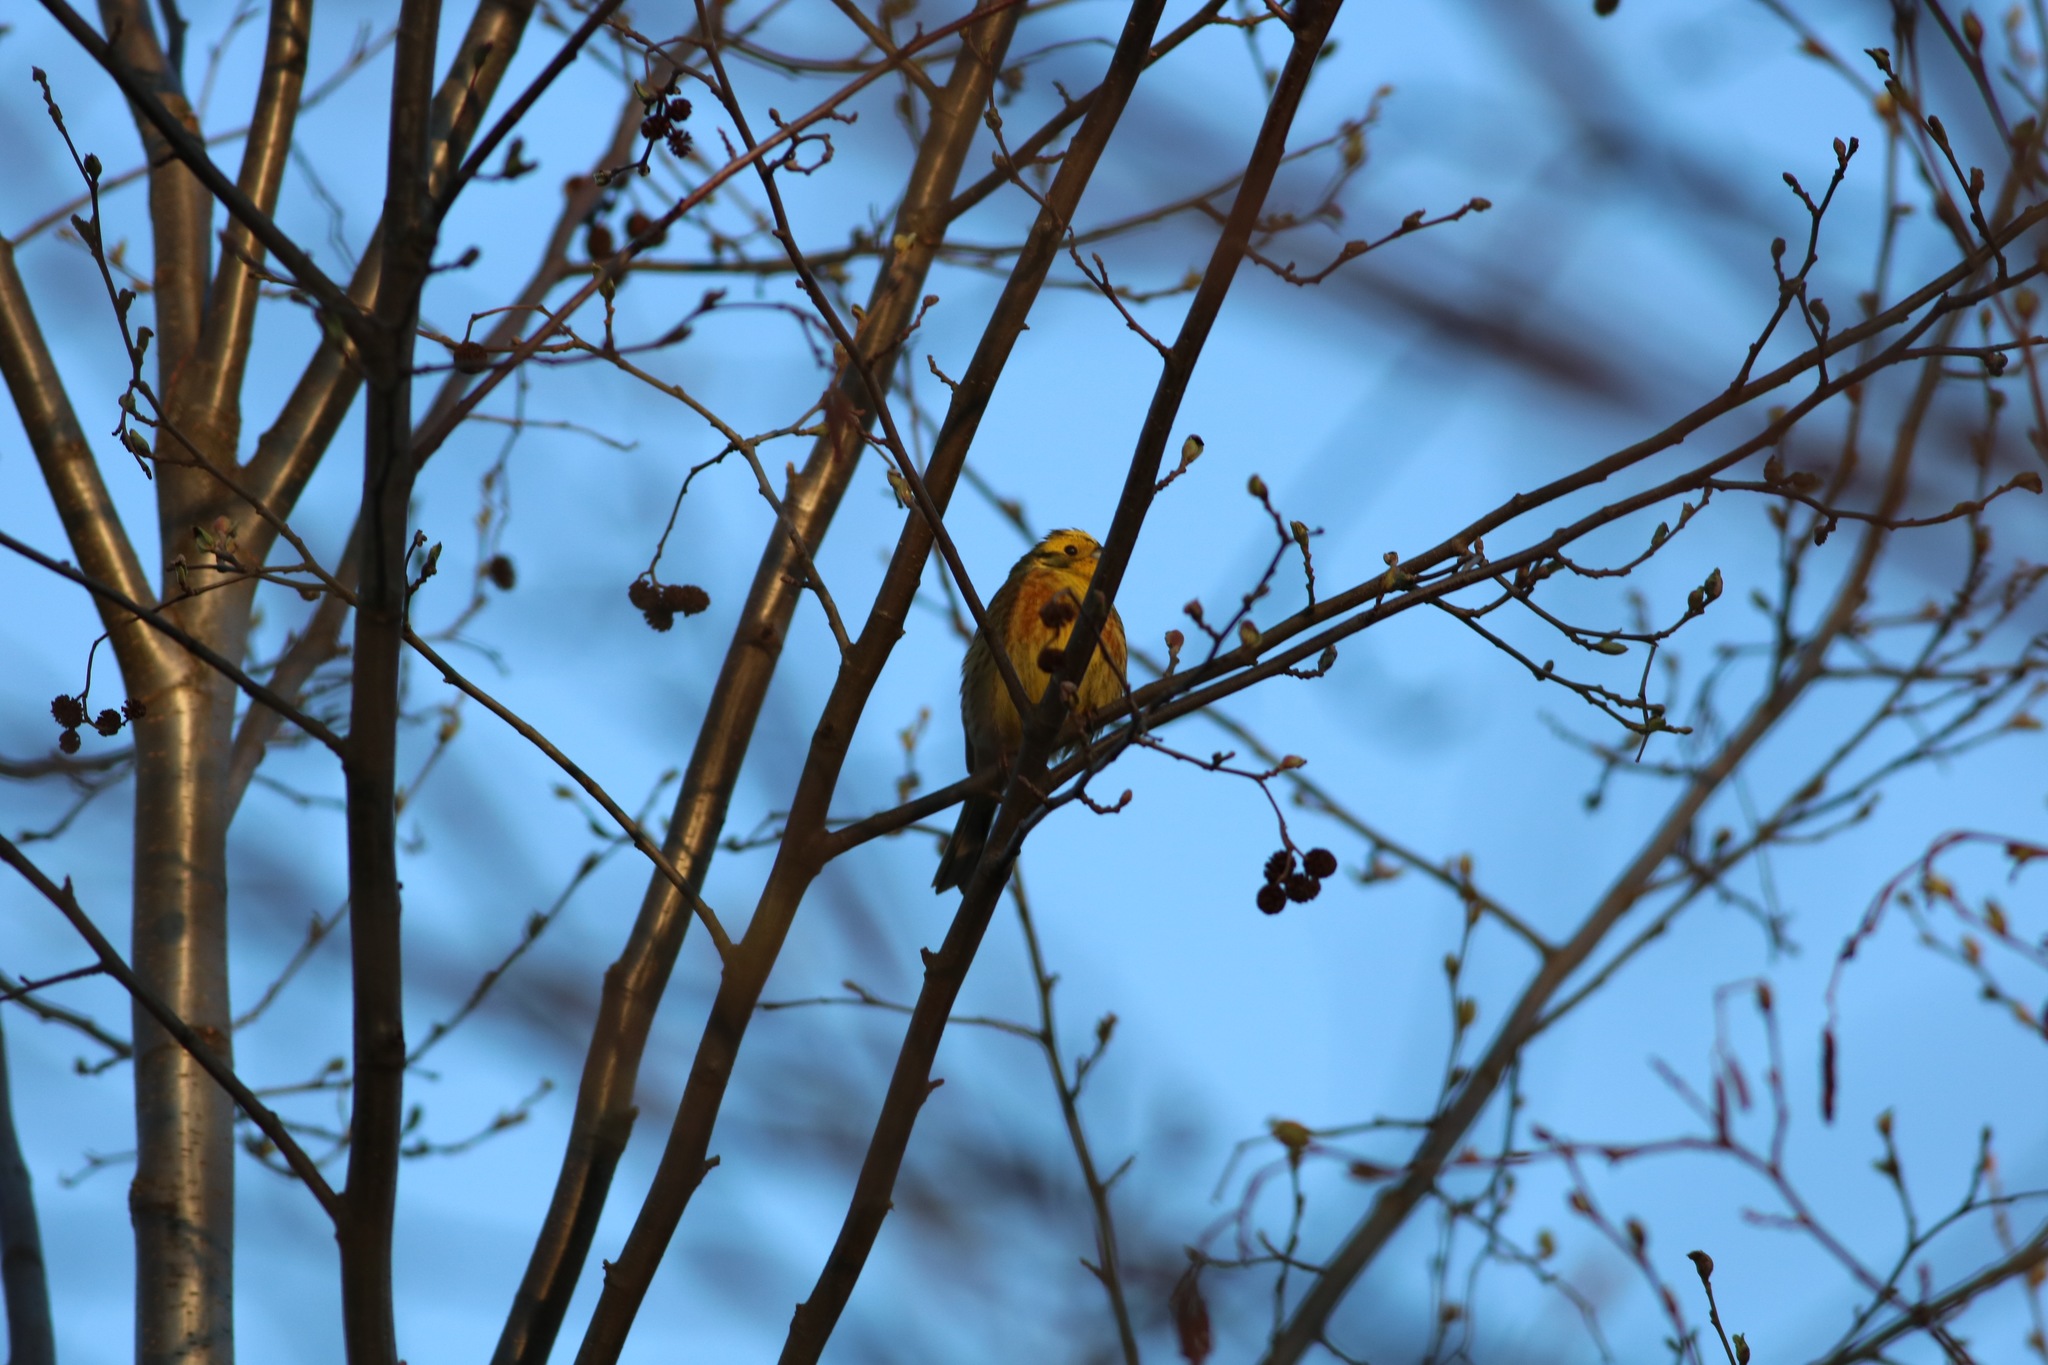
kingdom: Animalia
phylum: Chordata
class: Aves
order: Passeriformes
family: Emberizidae
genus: Emberiza
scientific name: Emberiza citrinella
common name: Yellowhammer
